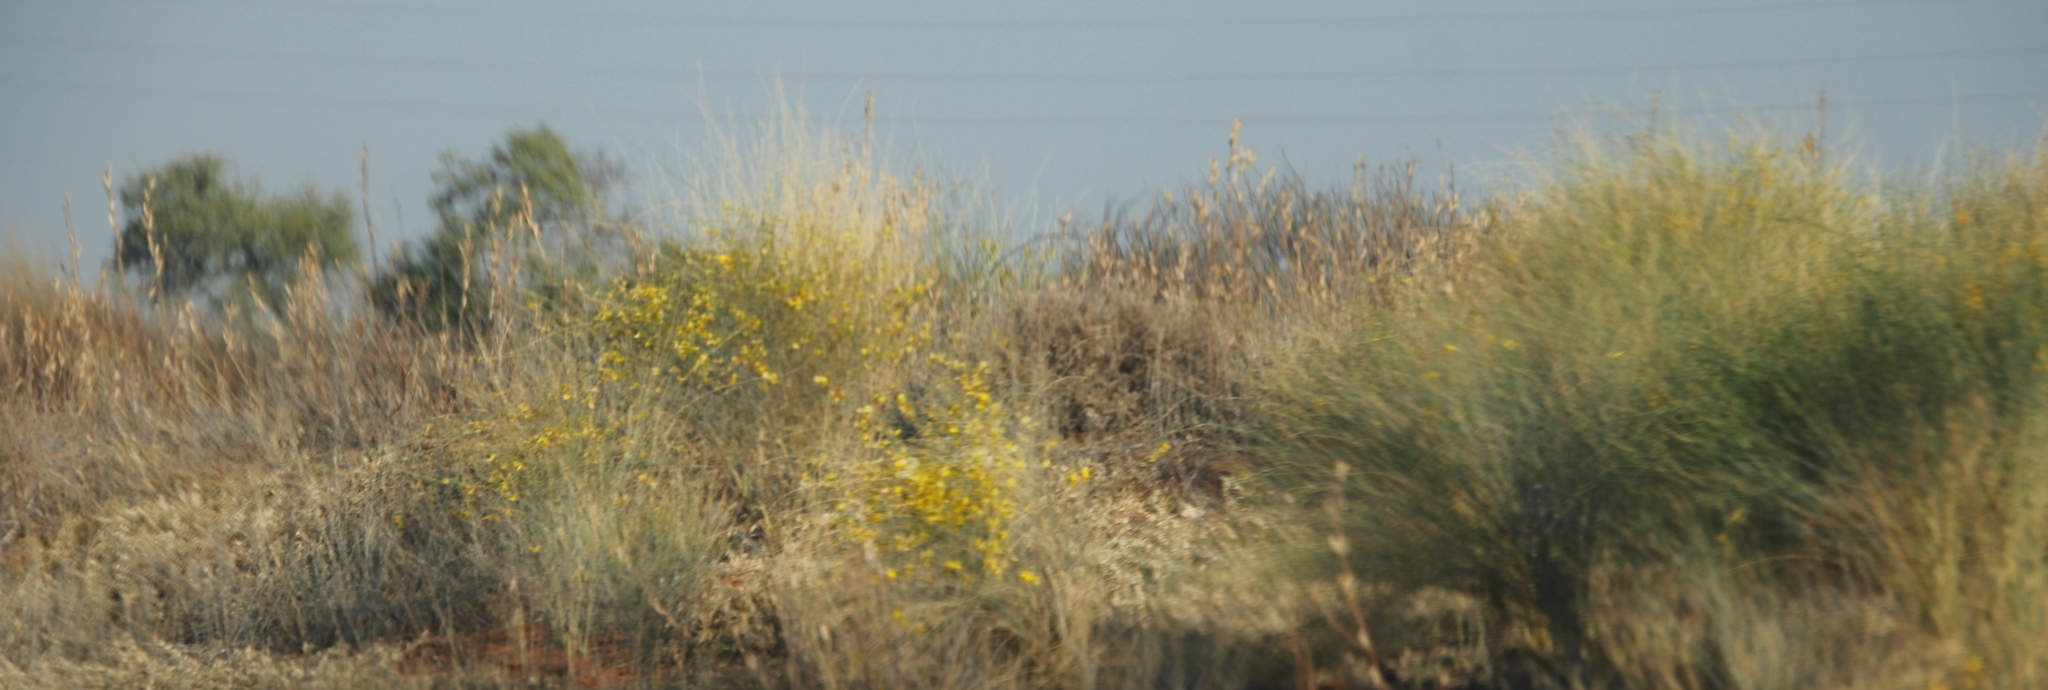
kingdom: Plantae
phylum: Tracheophyta
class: Magnoliopsida
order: Malvales
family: Thymelaeaceae
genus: Gnidia
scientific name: Gnidia polycephala
